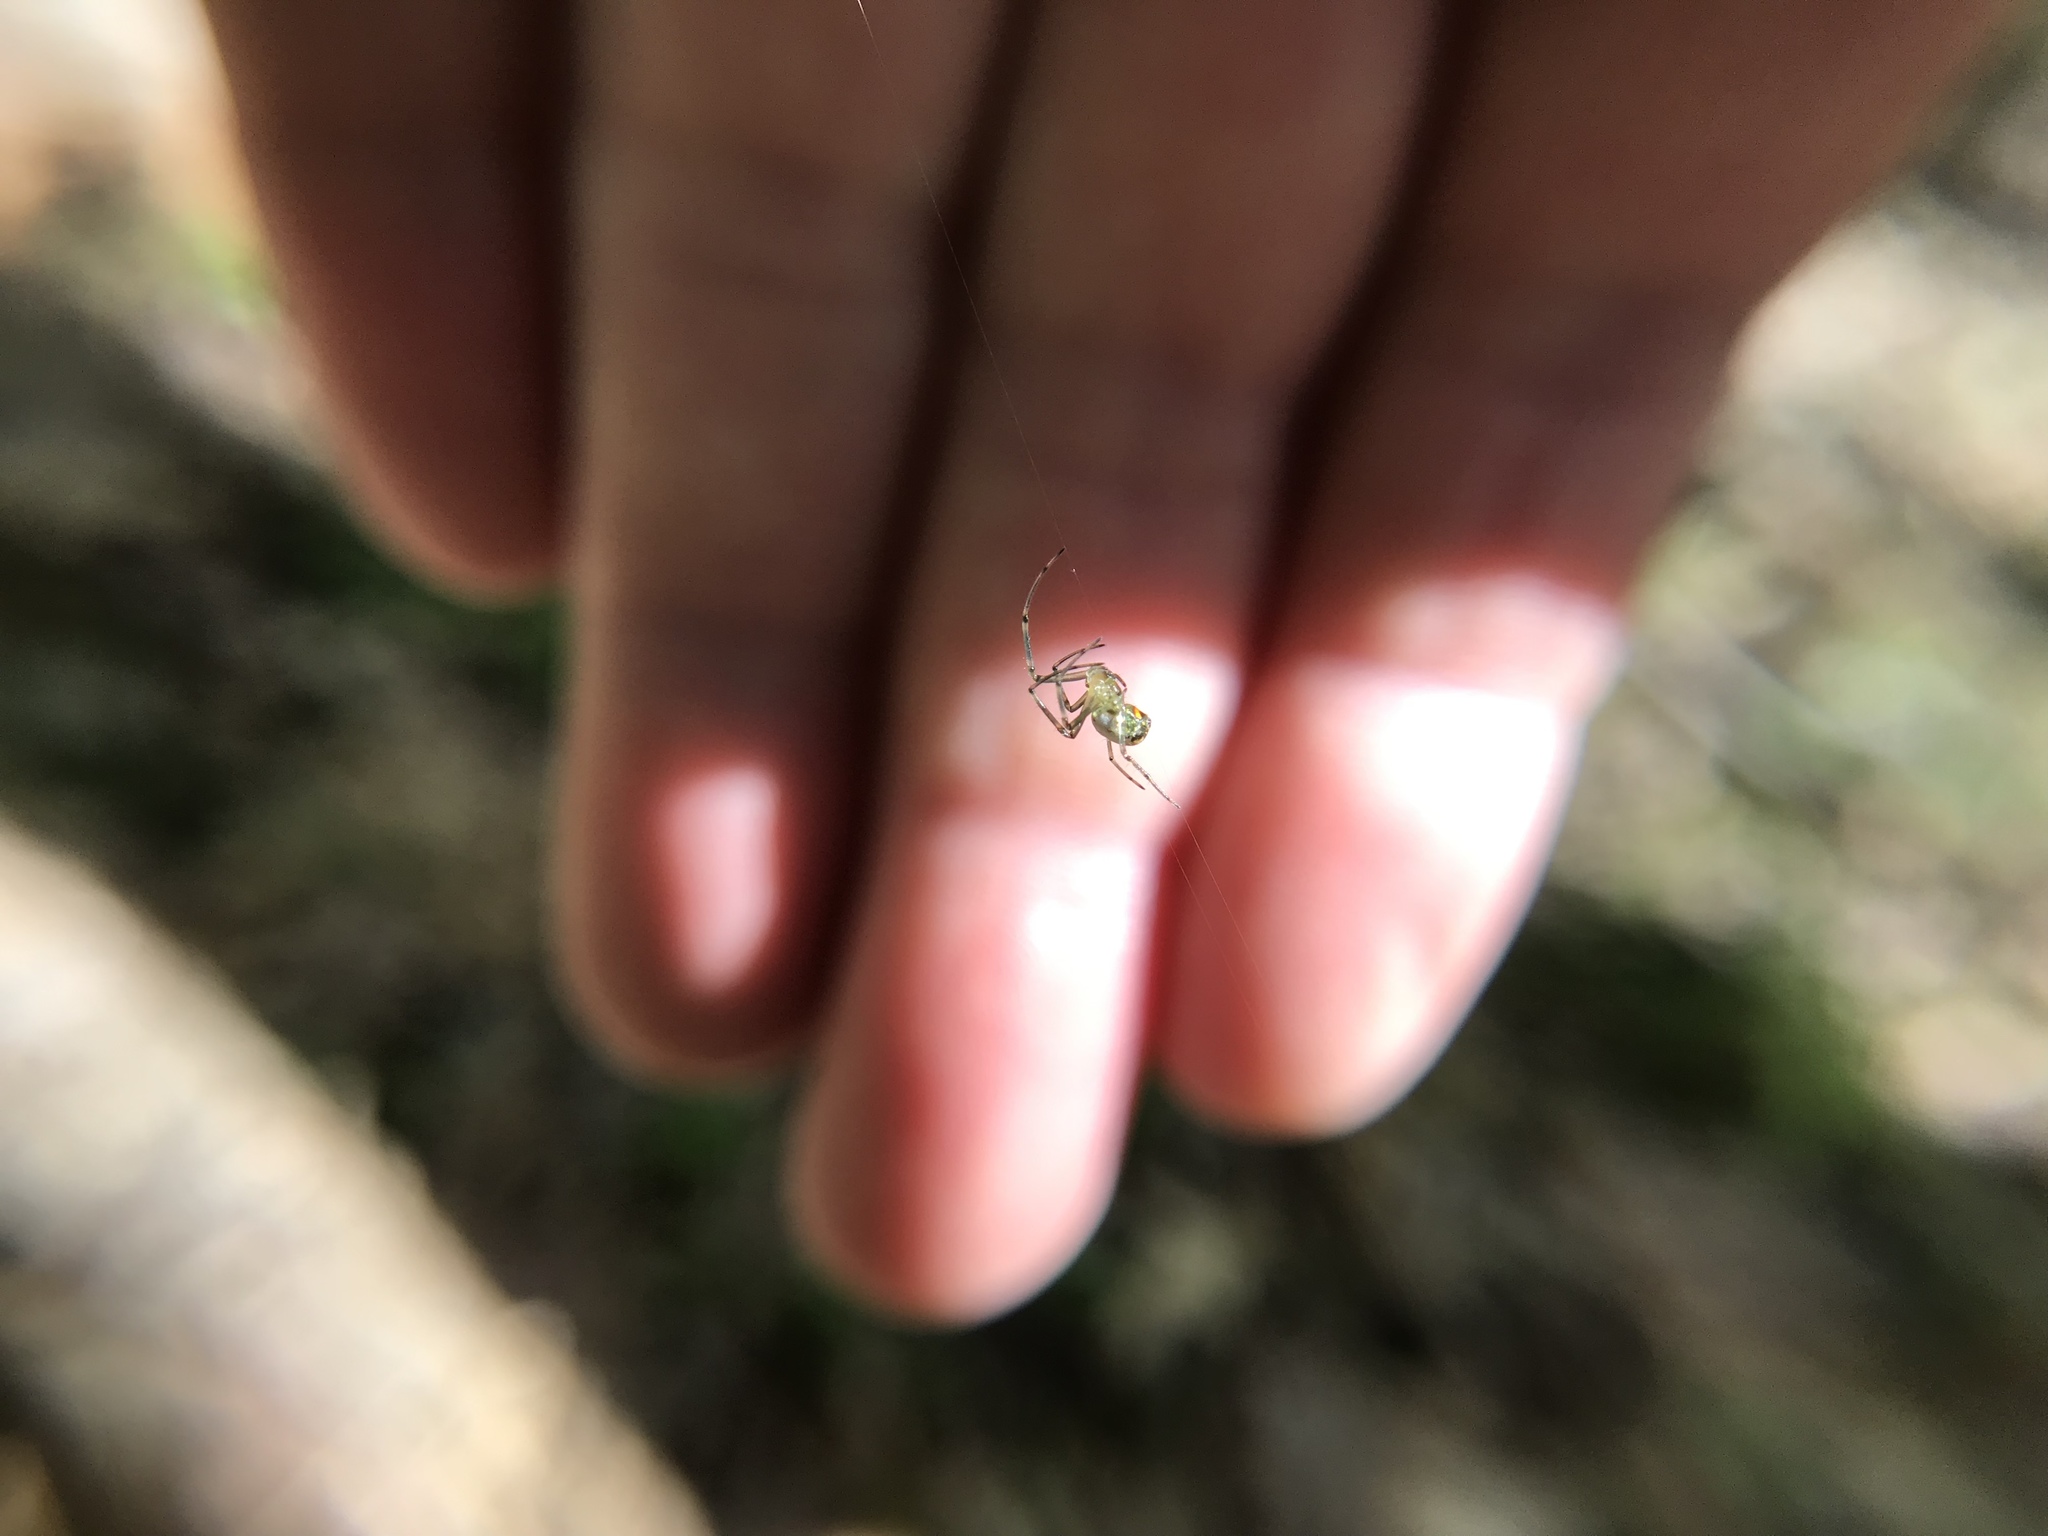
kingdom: Animalia
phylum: Arthropoda
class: Arachnida
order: Araneae
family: Tetragnathidae
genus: Leucauge
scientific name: Leucauge venusta
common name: Longjawed orb weavers
